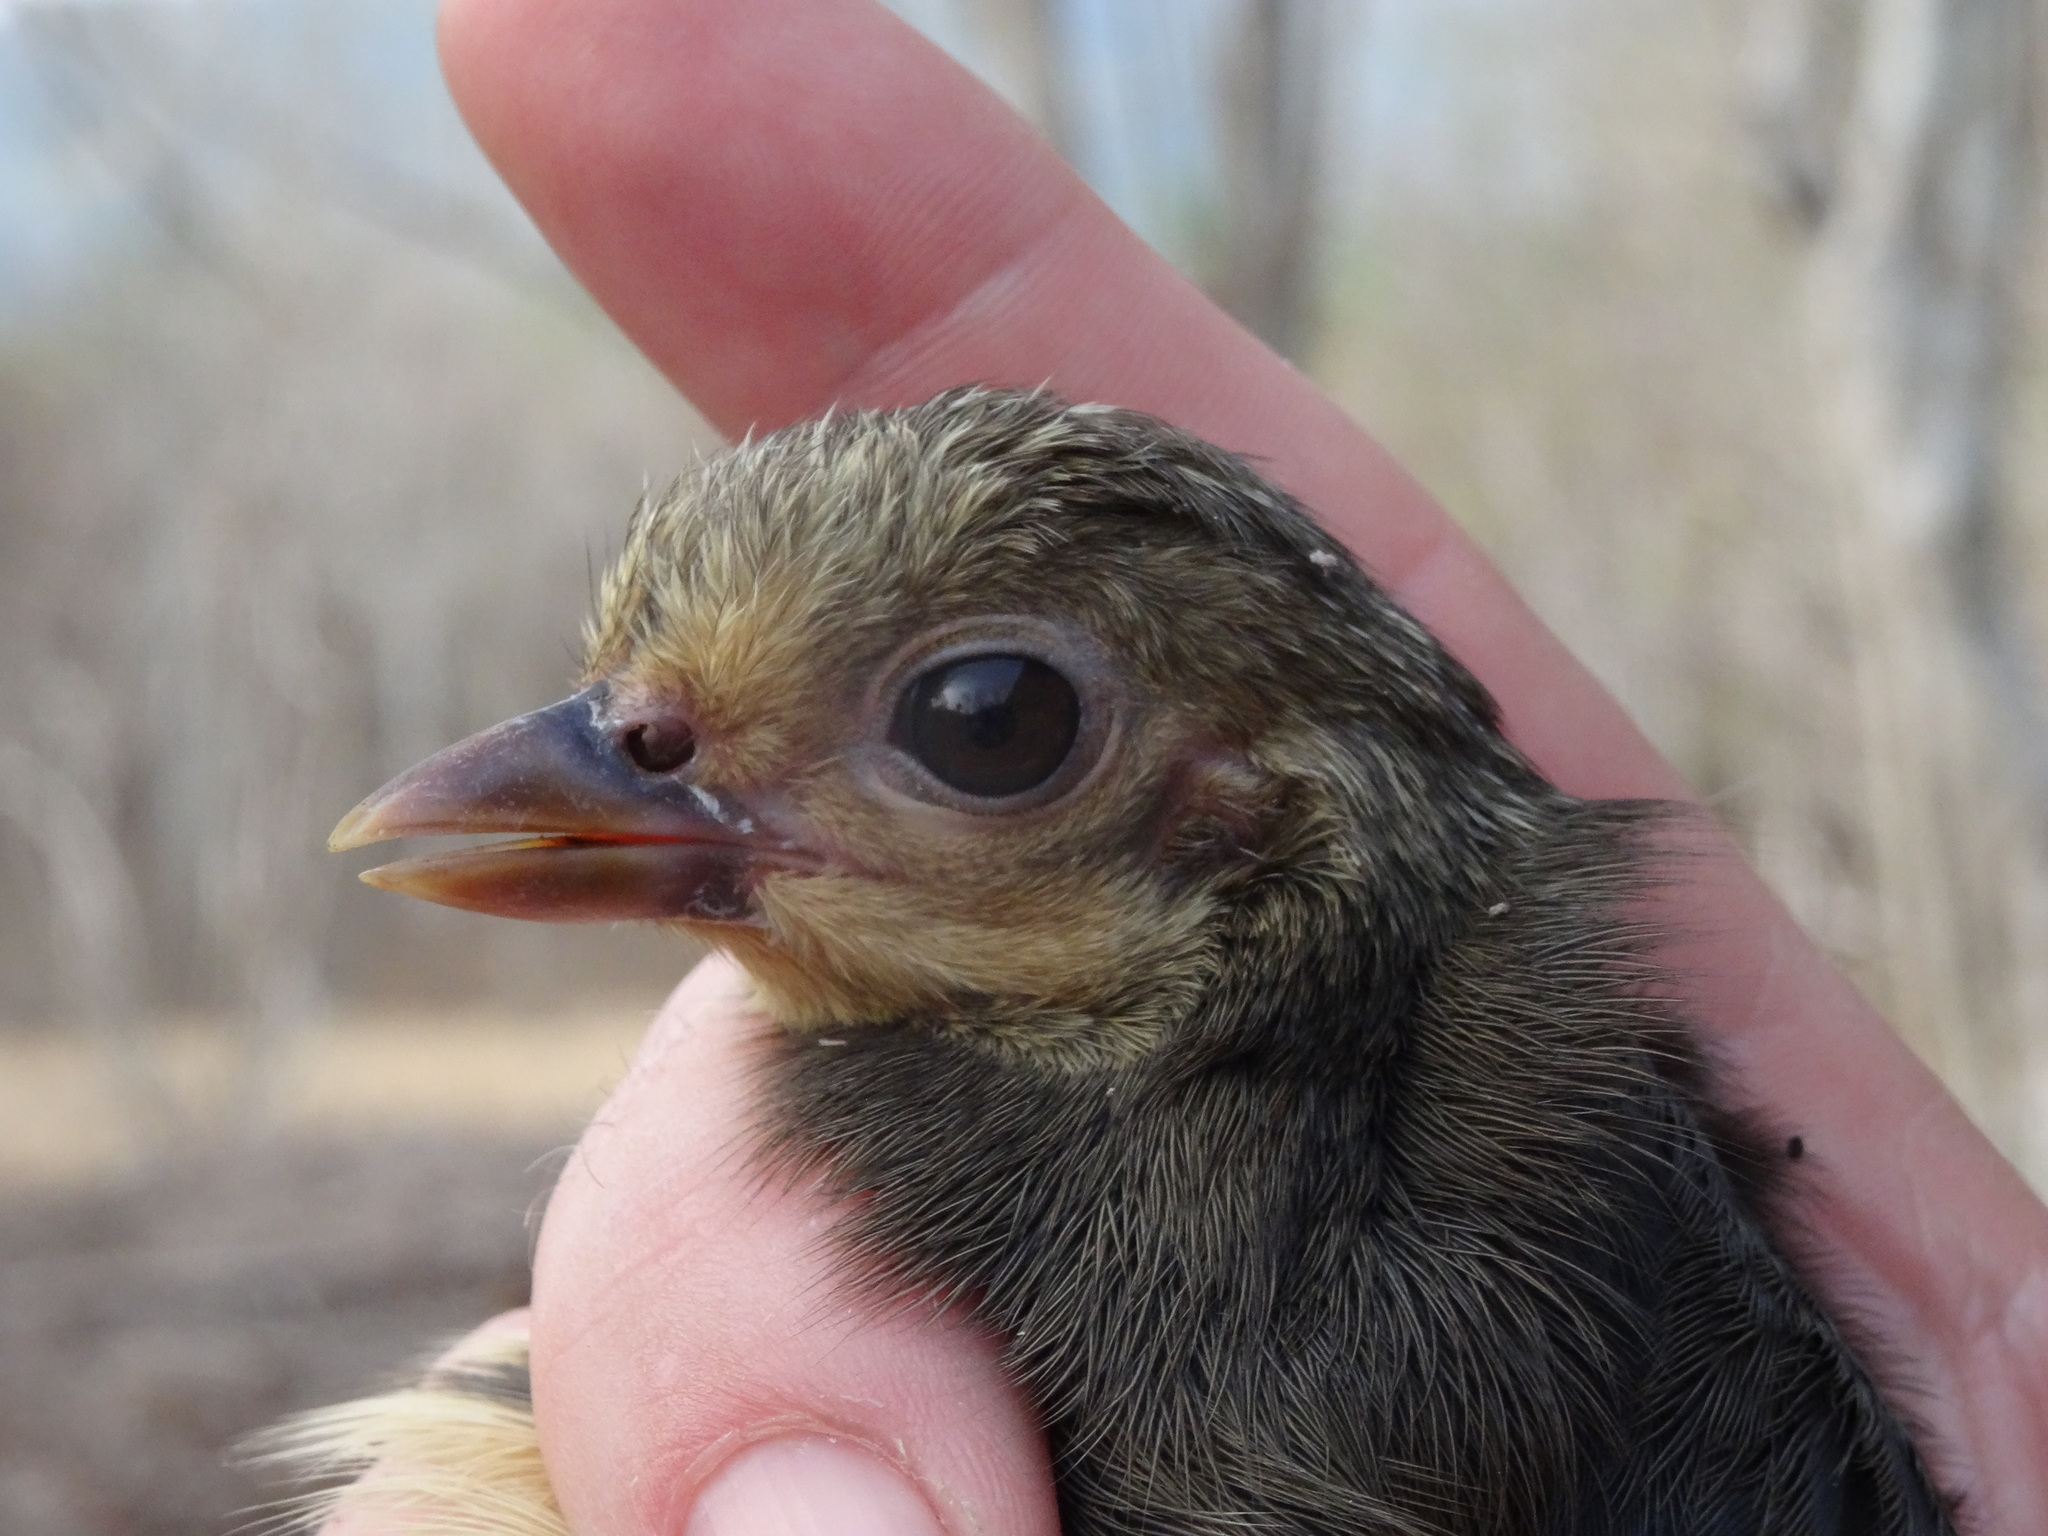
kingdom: Animalia
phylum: Chordata
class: Aves
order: Galliformes
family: Megapodiidae
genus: Macrocephalon
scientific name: Macrocephalon maleo
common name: Maleo
